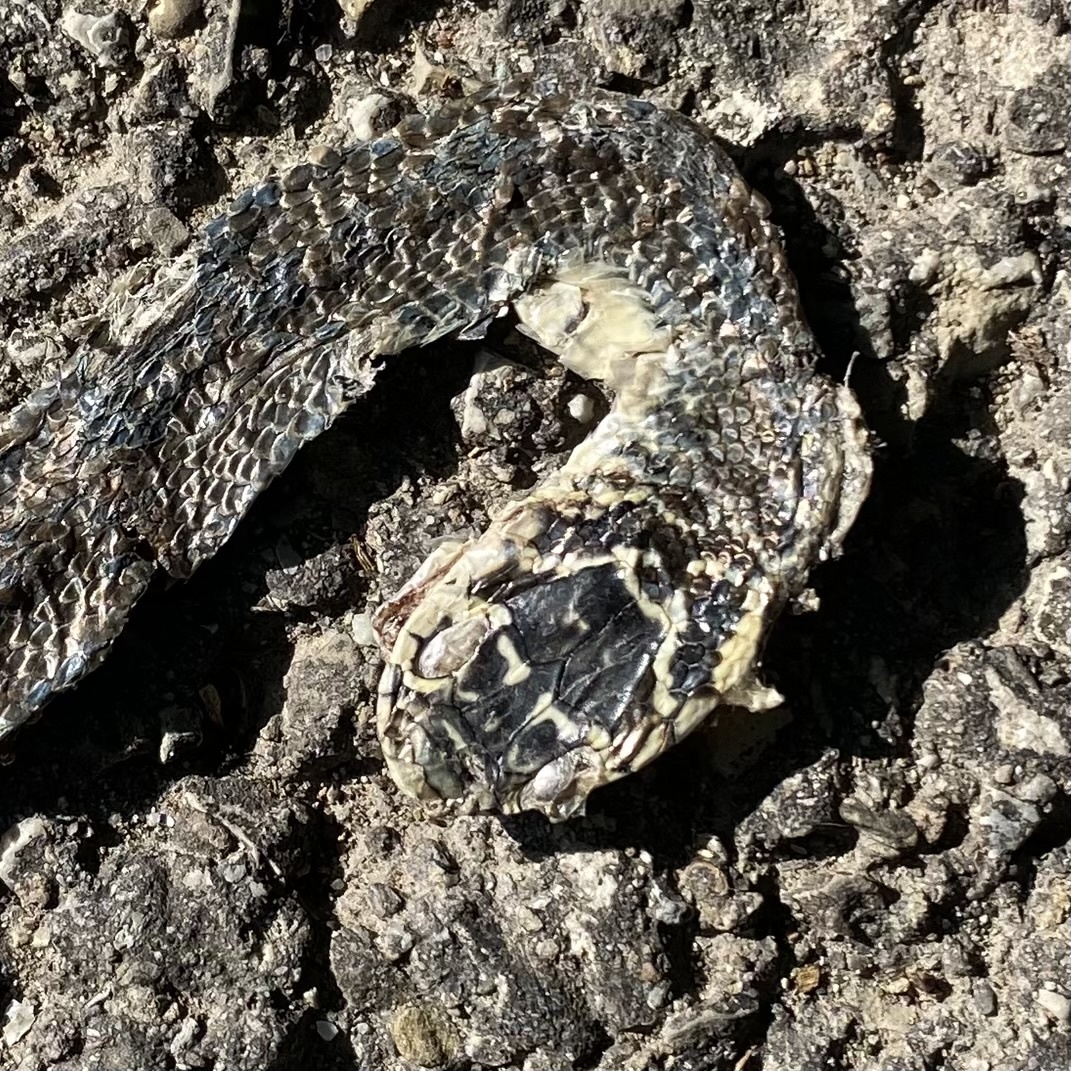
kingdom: Animalia
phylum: Chordata
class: Squamata
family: Colubridae
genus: Hierophis
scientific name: Hierophis viridiflavus
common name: Green whip snake
